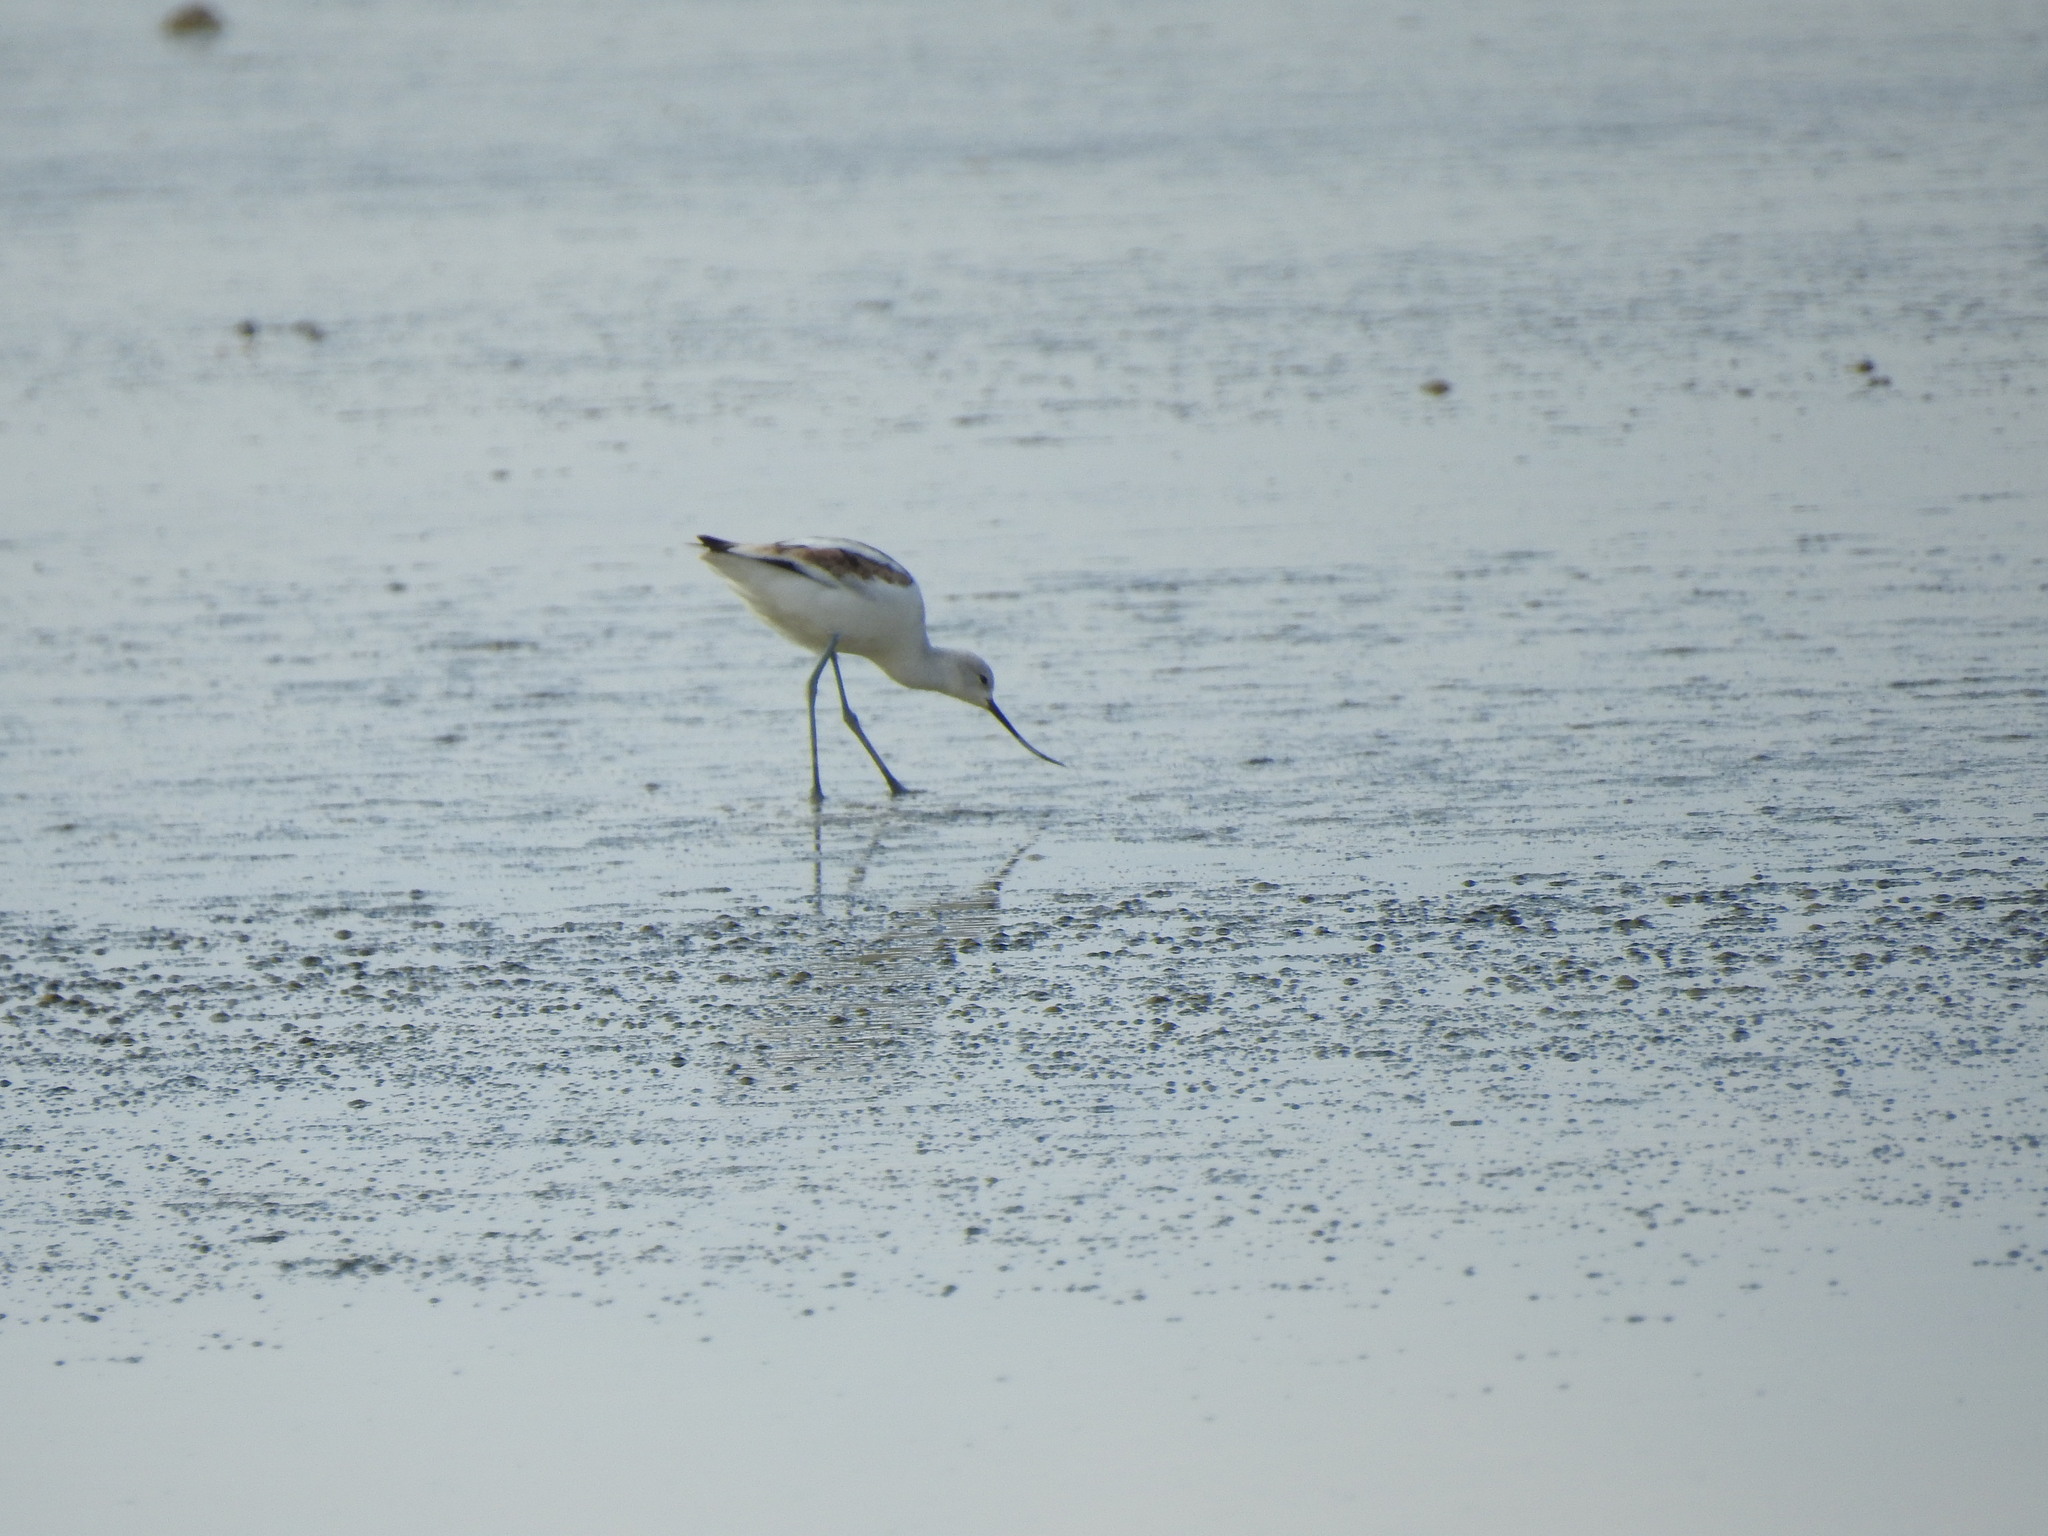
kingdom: Animalia
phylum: Chordata
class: Aves
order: Charadriiformes
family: Recurvirostridae
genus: Recurvirostra
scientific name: Recurvirostra americana
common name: American avocet
